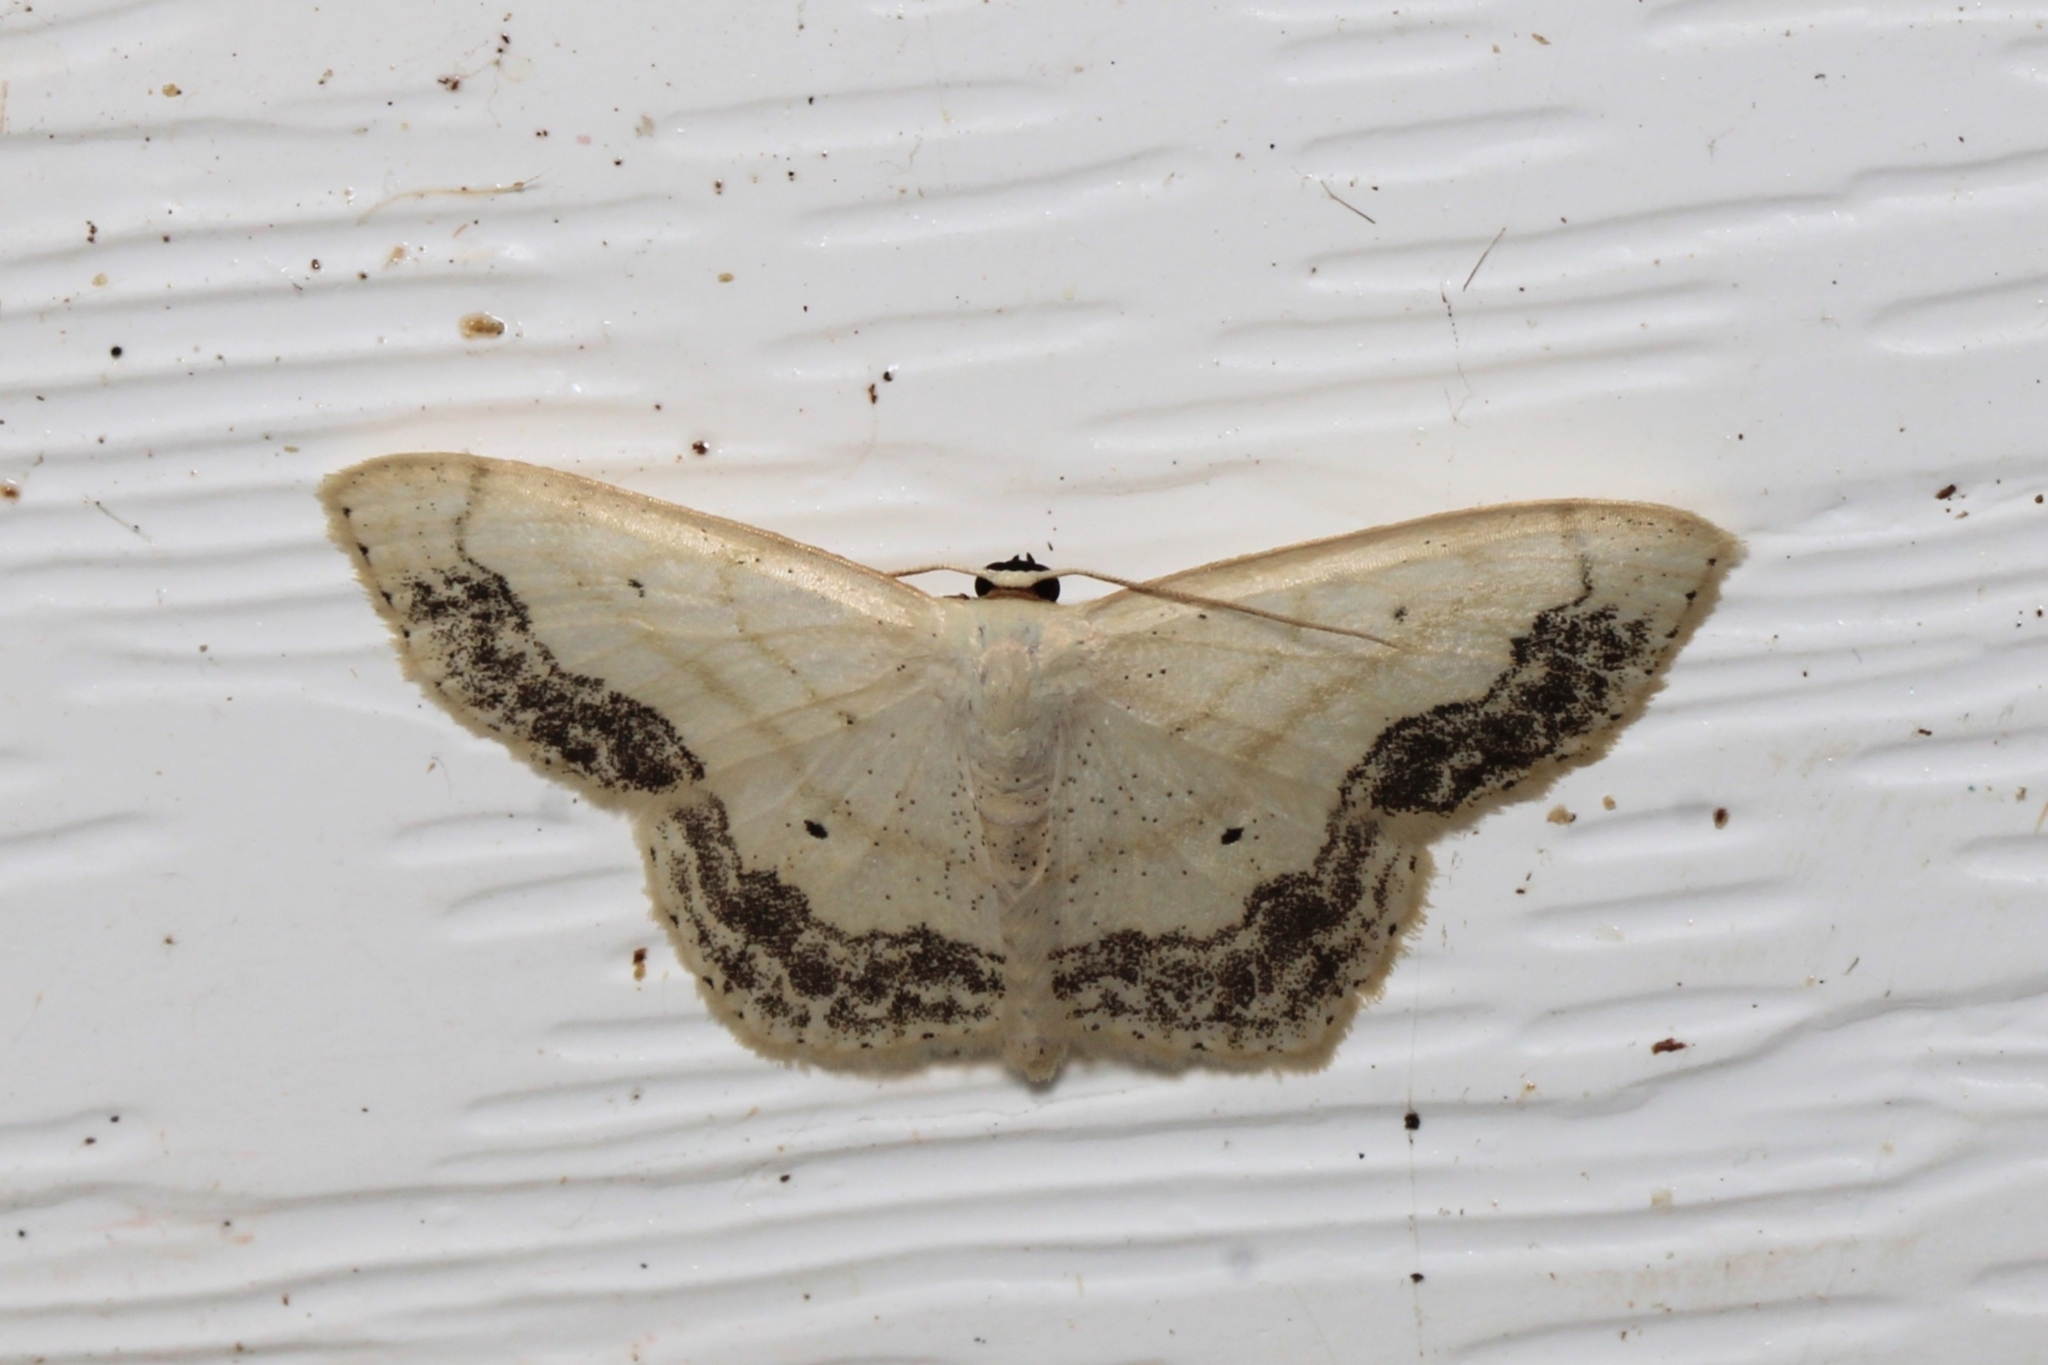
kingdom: Animalia
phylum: Arthropoda
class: Insecta
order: Lepidoptera
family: Geometridae
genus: Scopula
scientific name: Scopula limboundata
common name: Large lace border
